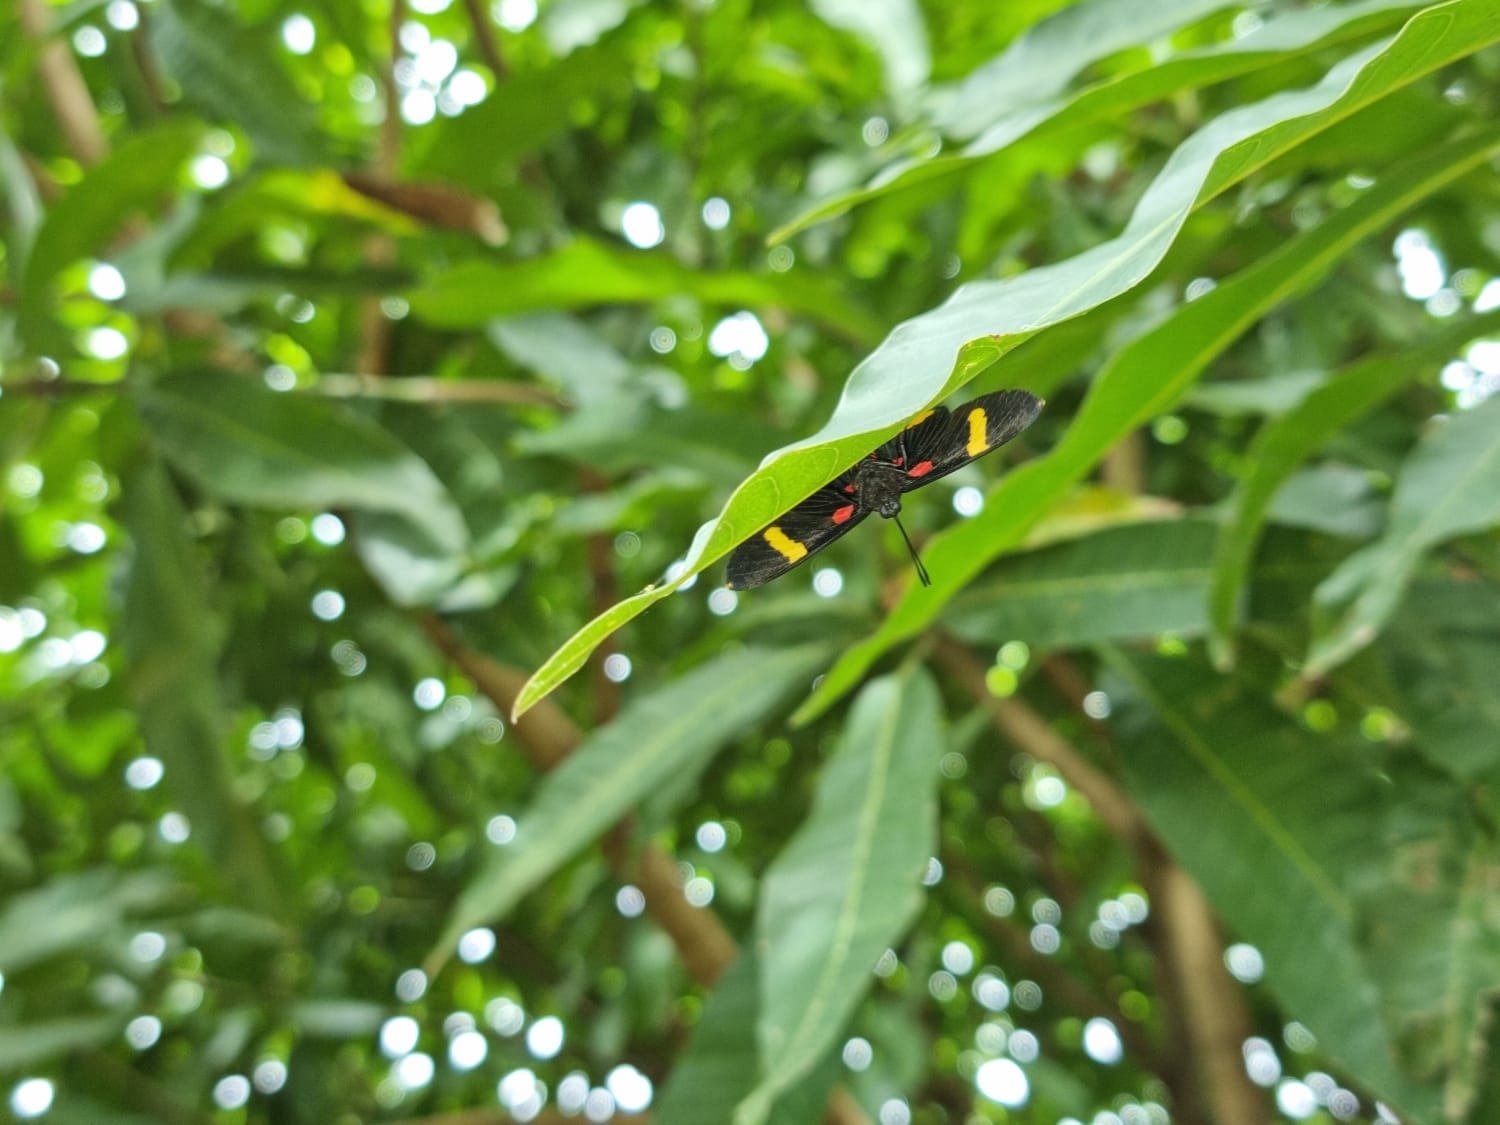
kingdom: Animalia
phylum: Arthropoda
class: Insecta
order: Lepidoptera
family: Lycaenidae
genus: Melanis
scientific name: Melanis electron
